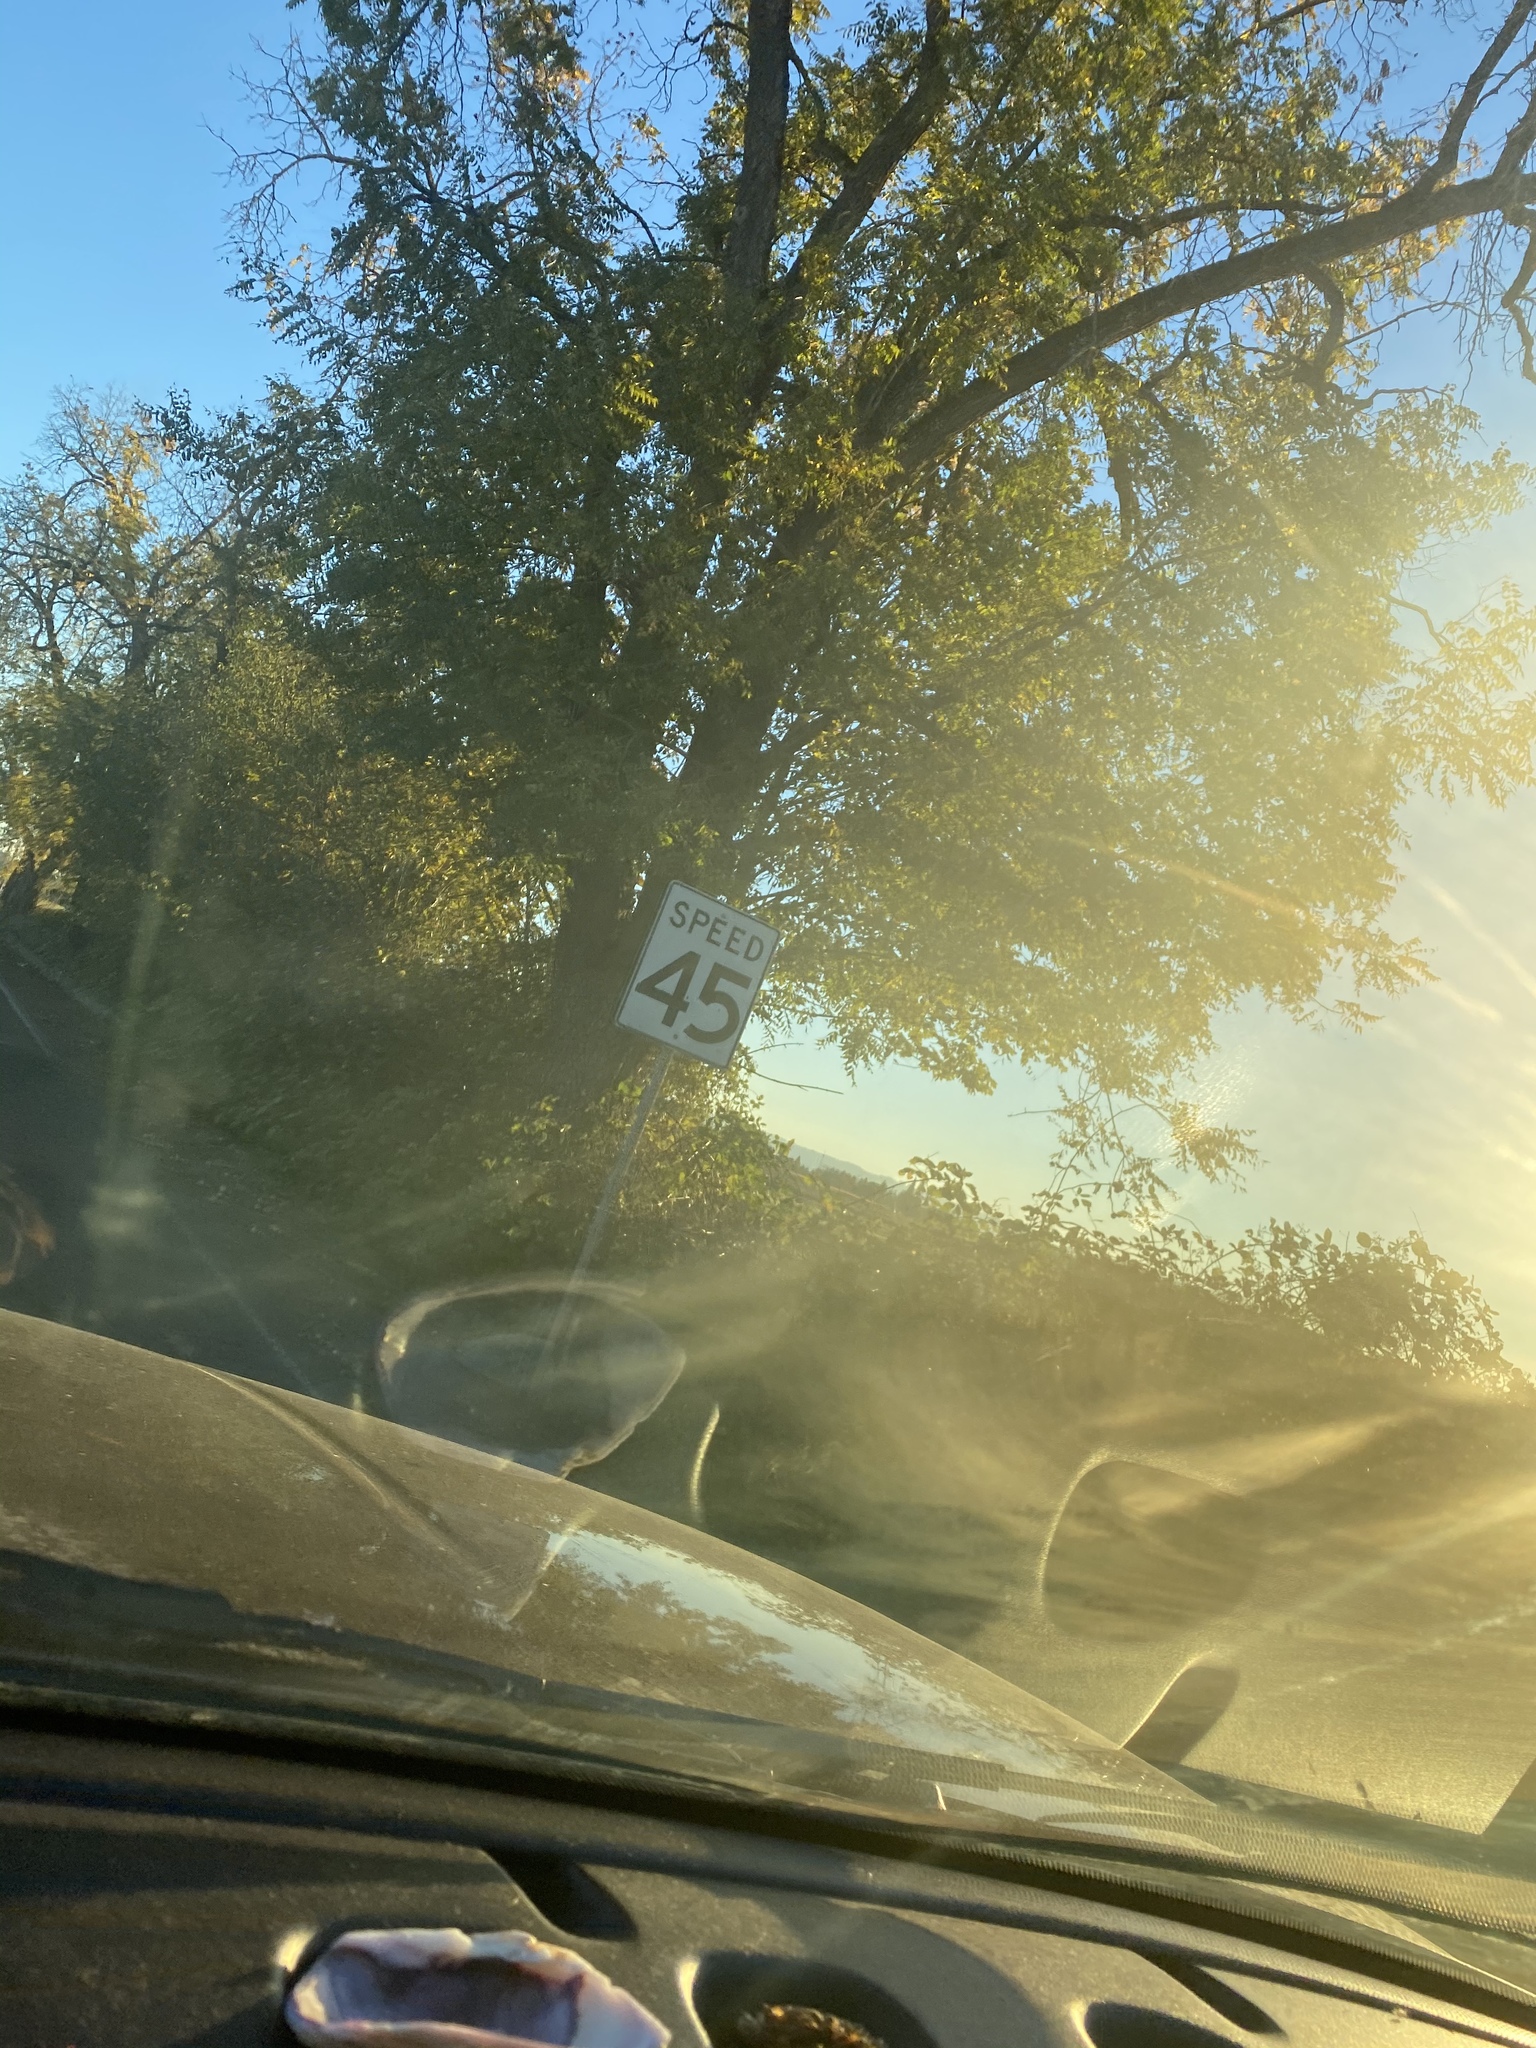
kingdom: Plantae
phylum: Tracheophyta
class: Magnoliopsida
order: Fagales
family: Juglandaceae
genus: Juglans
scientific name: Juglans nigra
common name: Black walnut
